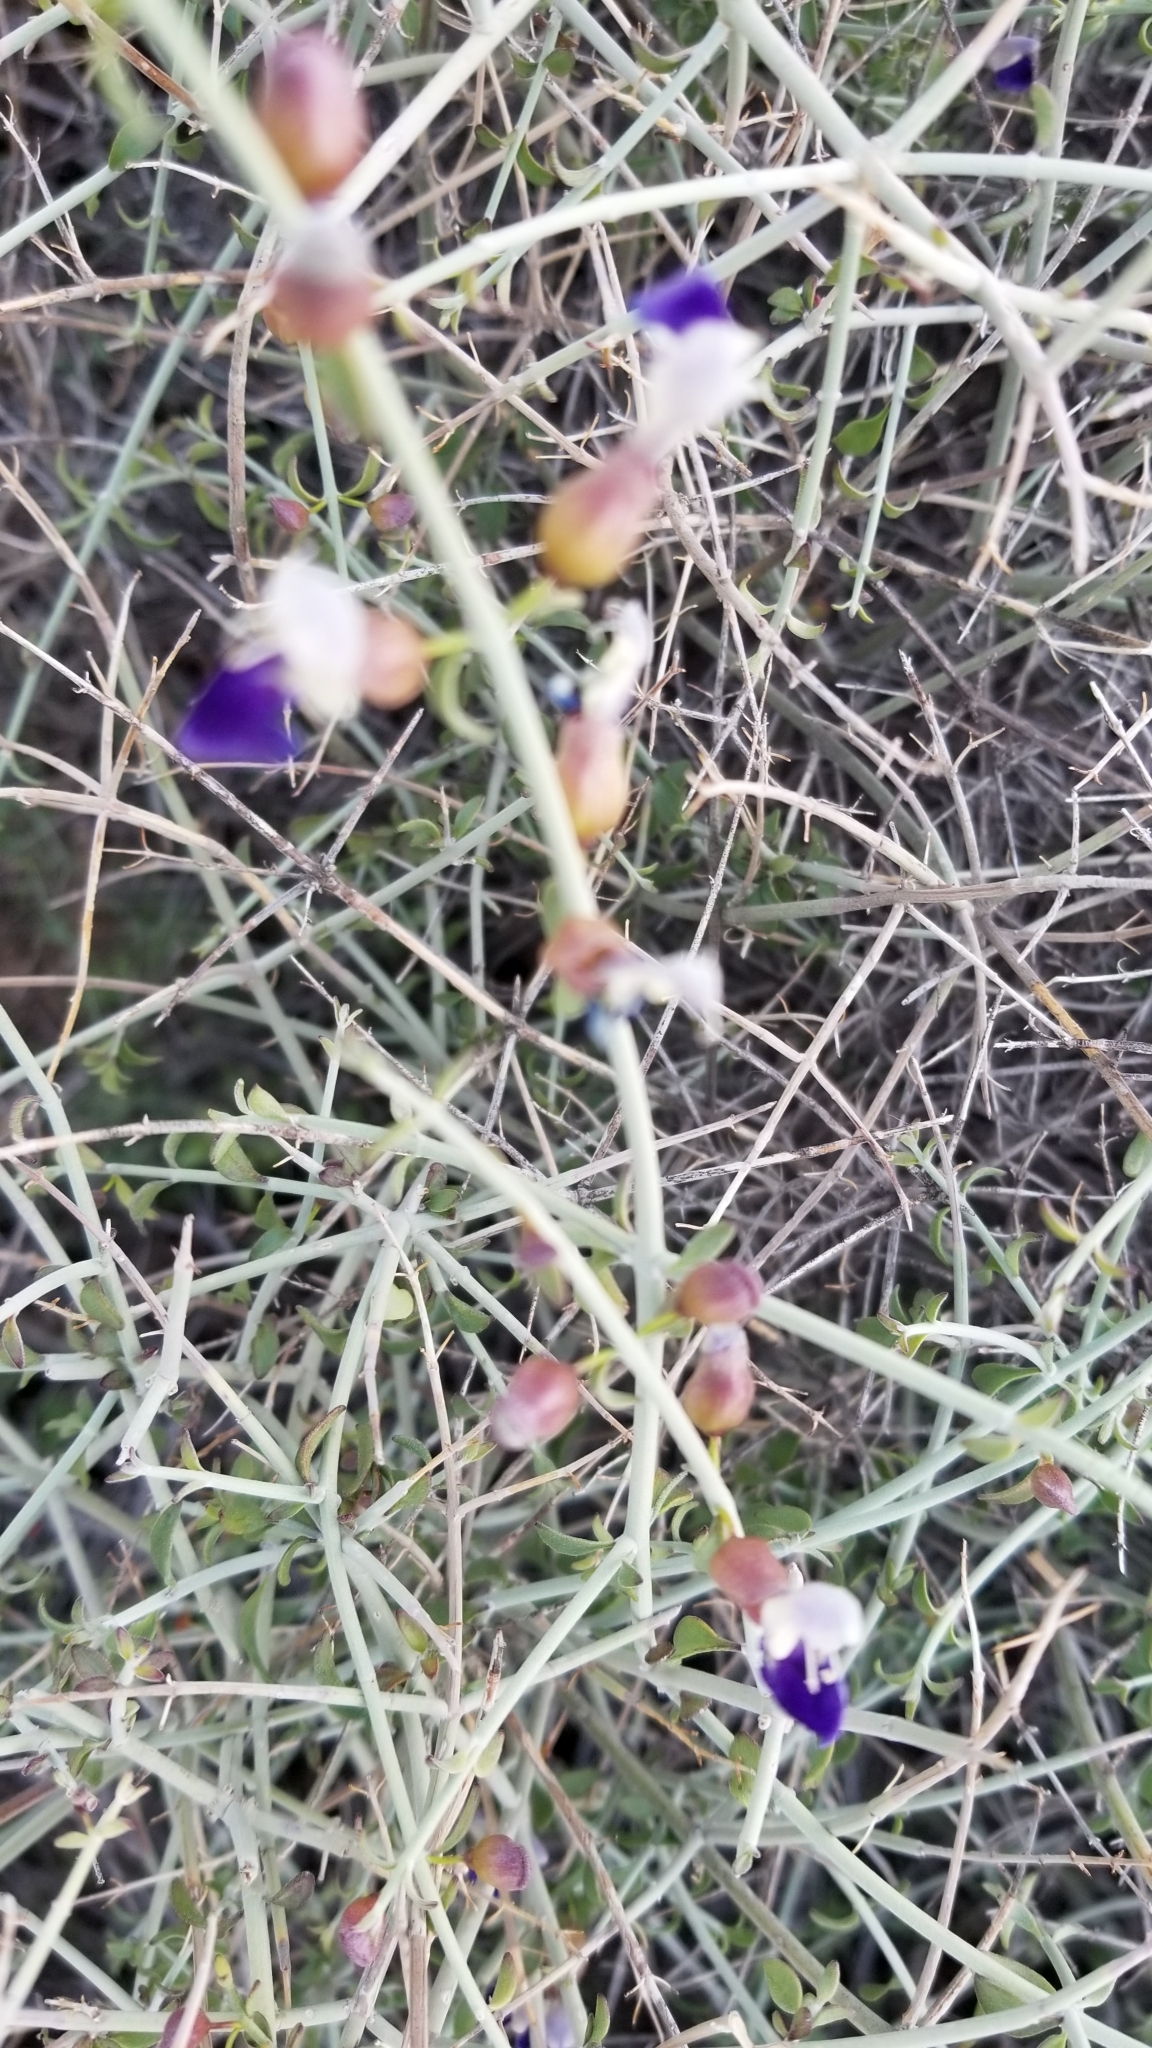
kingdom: Plantae
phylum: Tracheophyta
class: Magnoliopsida
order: Lamiales
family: Lamiaceae
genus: Scutellaria
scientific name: Scutellaria mexicana
